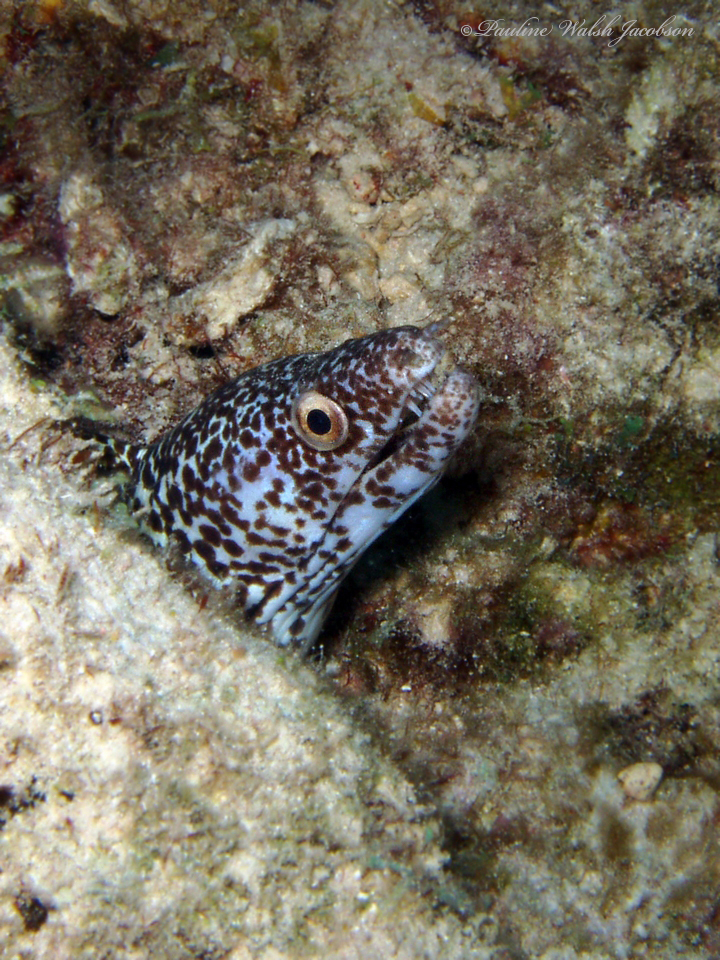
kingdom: Animalia
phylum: Chordata
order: Anguilliformes
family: Muraenidae
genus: Gymnothorax
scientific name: Gymnothorax moringa
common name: Spotted moray
